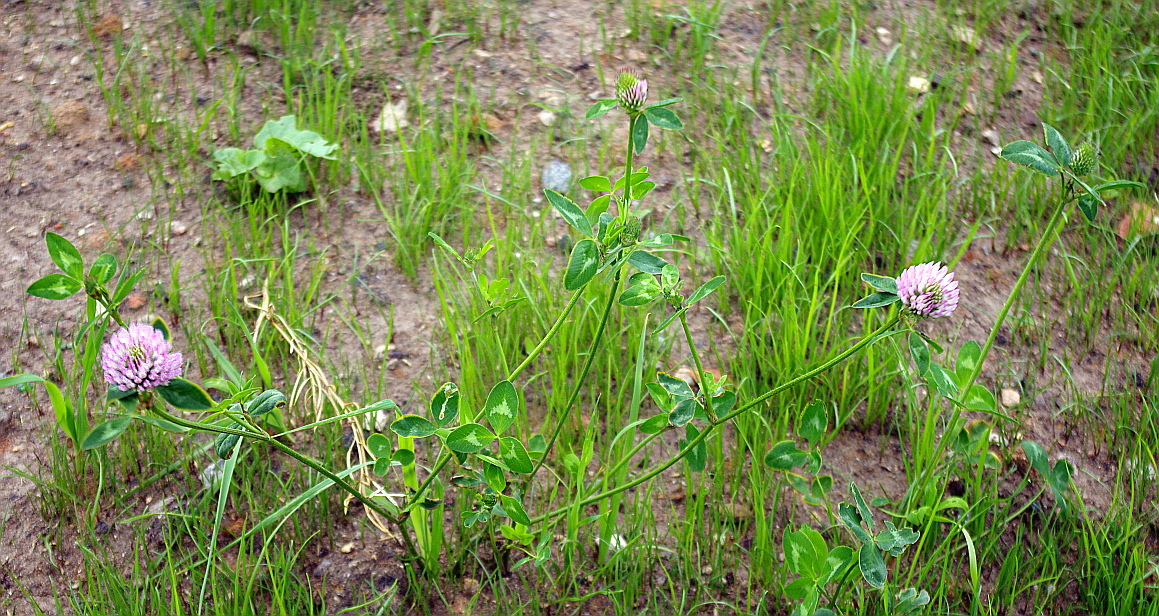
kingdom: Plantae
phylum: Tracheophyta
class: Magnoliopsida
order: Fabales
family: Fabaceae
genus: Trifolium
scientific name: Trifolium pratense
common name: Red clover
